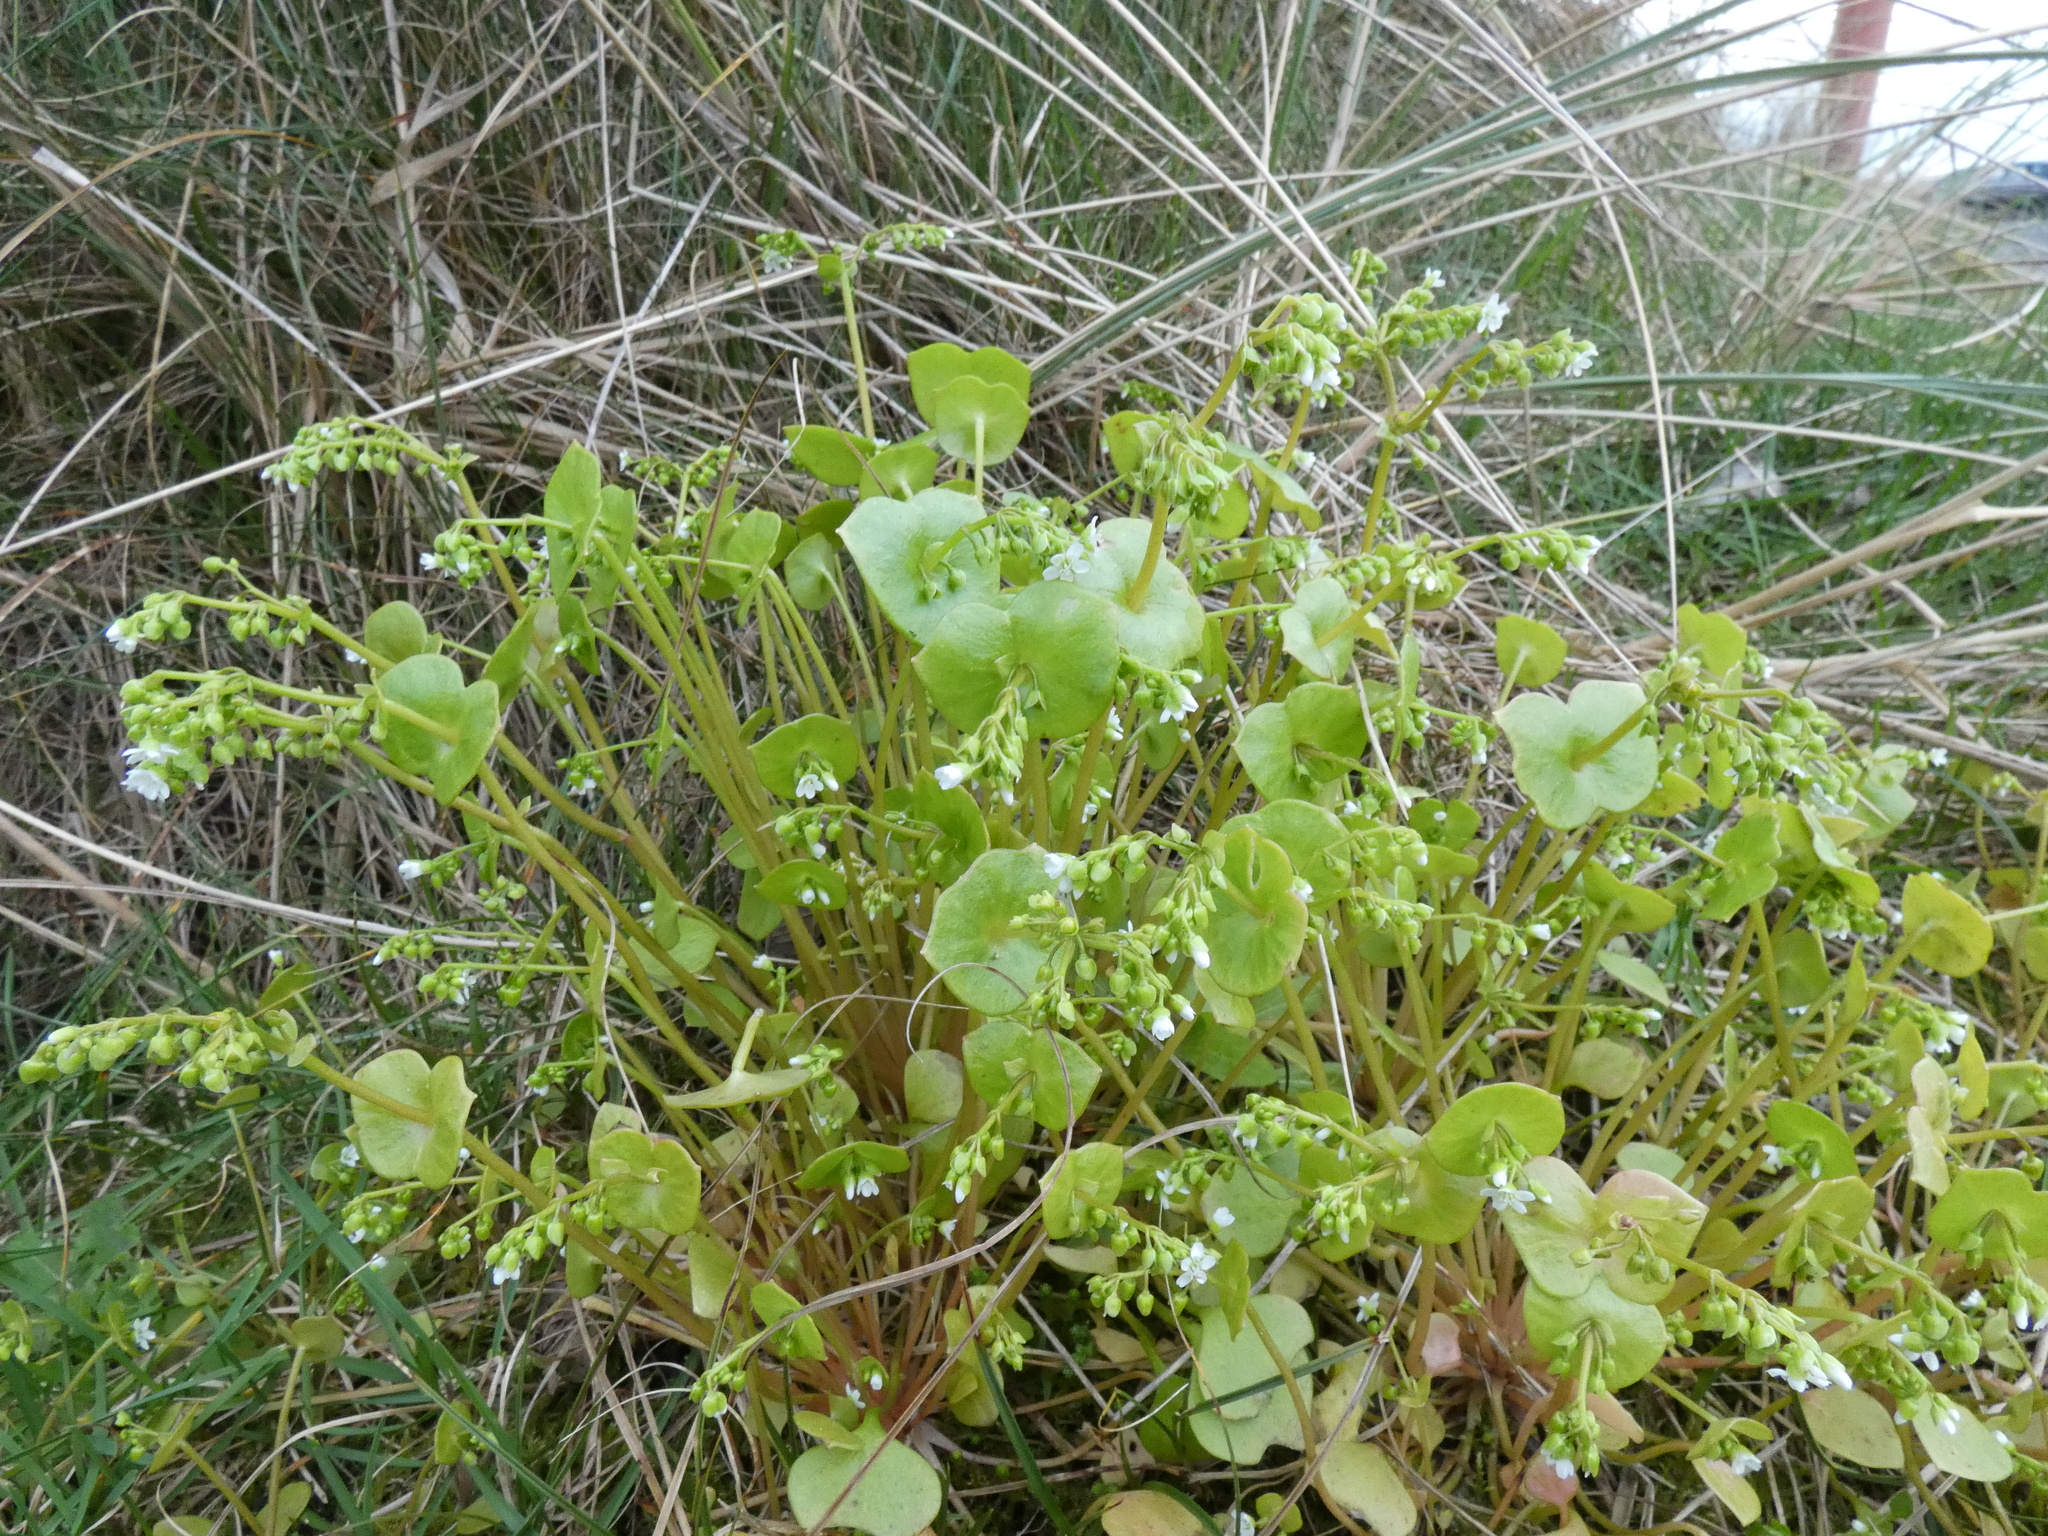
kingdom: Plantae
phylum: Tracheophyta
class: Magnoliopsida
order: Caryophyllales
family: Montiaceae
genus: Claytonia
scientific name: Claytonia perfoliata
